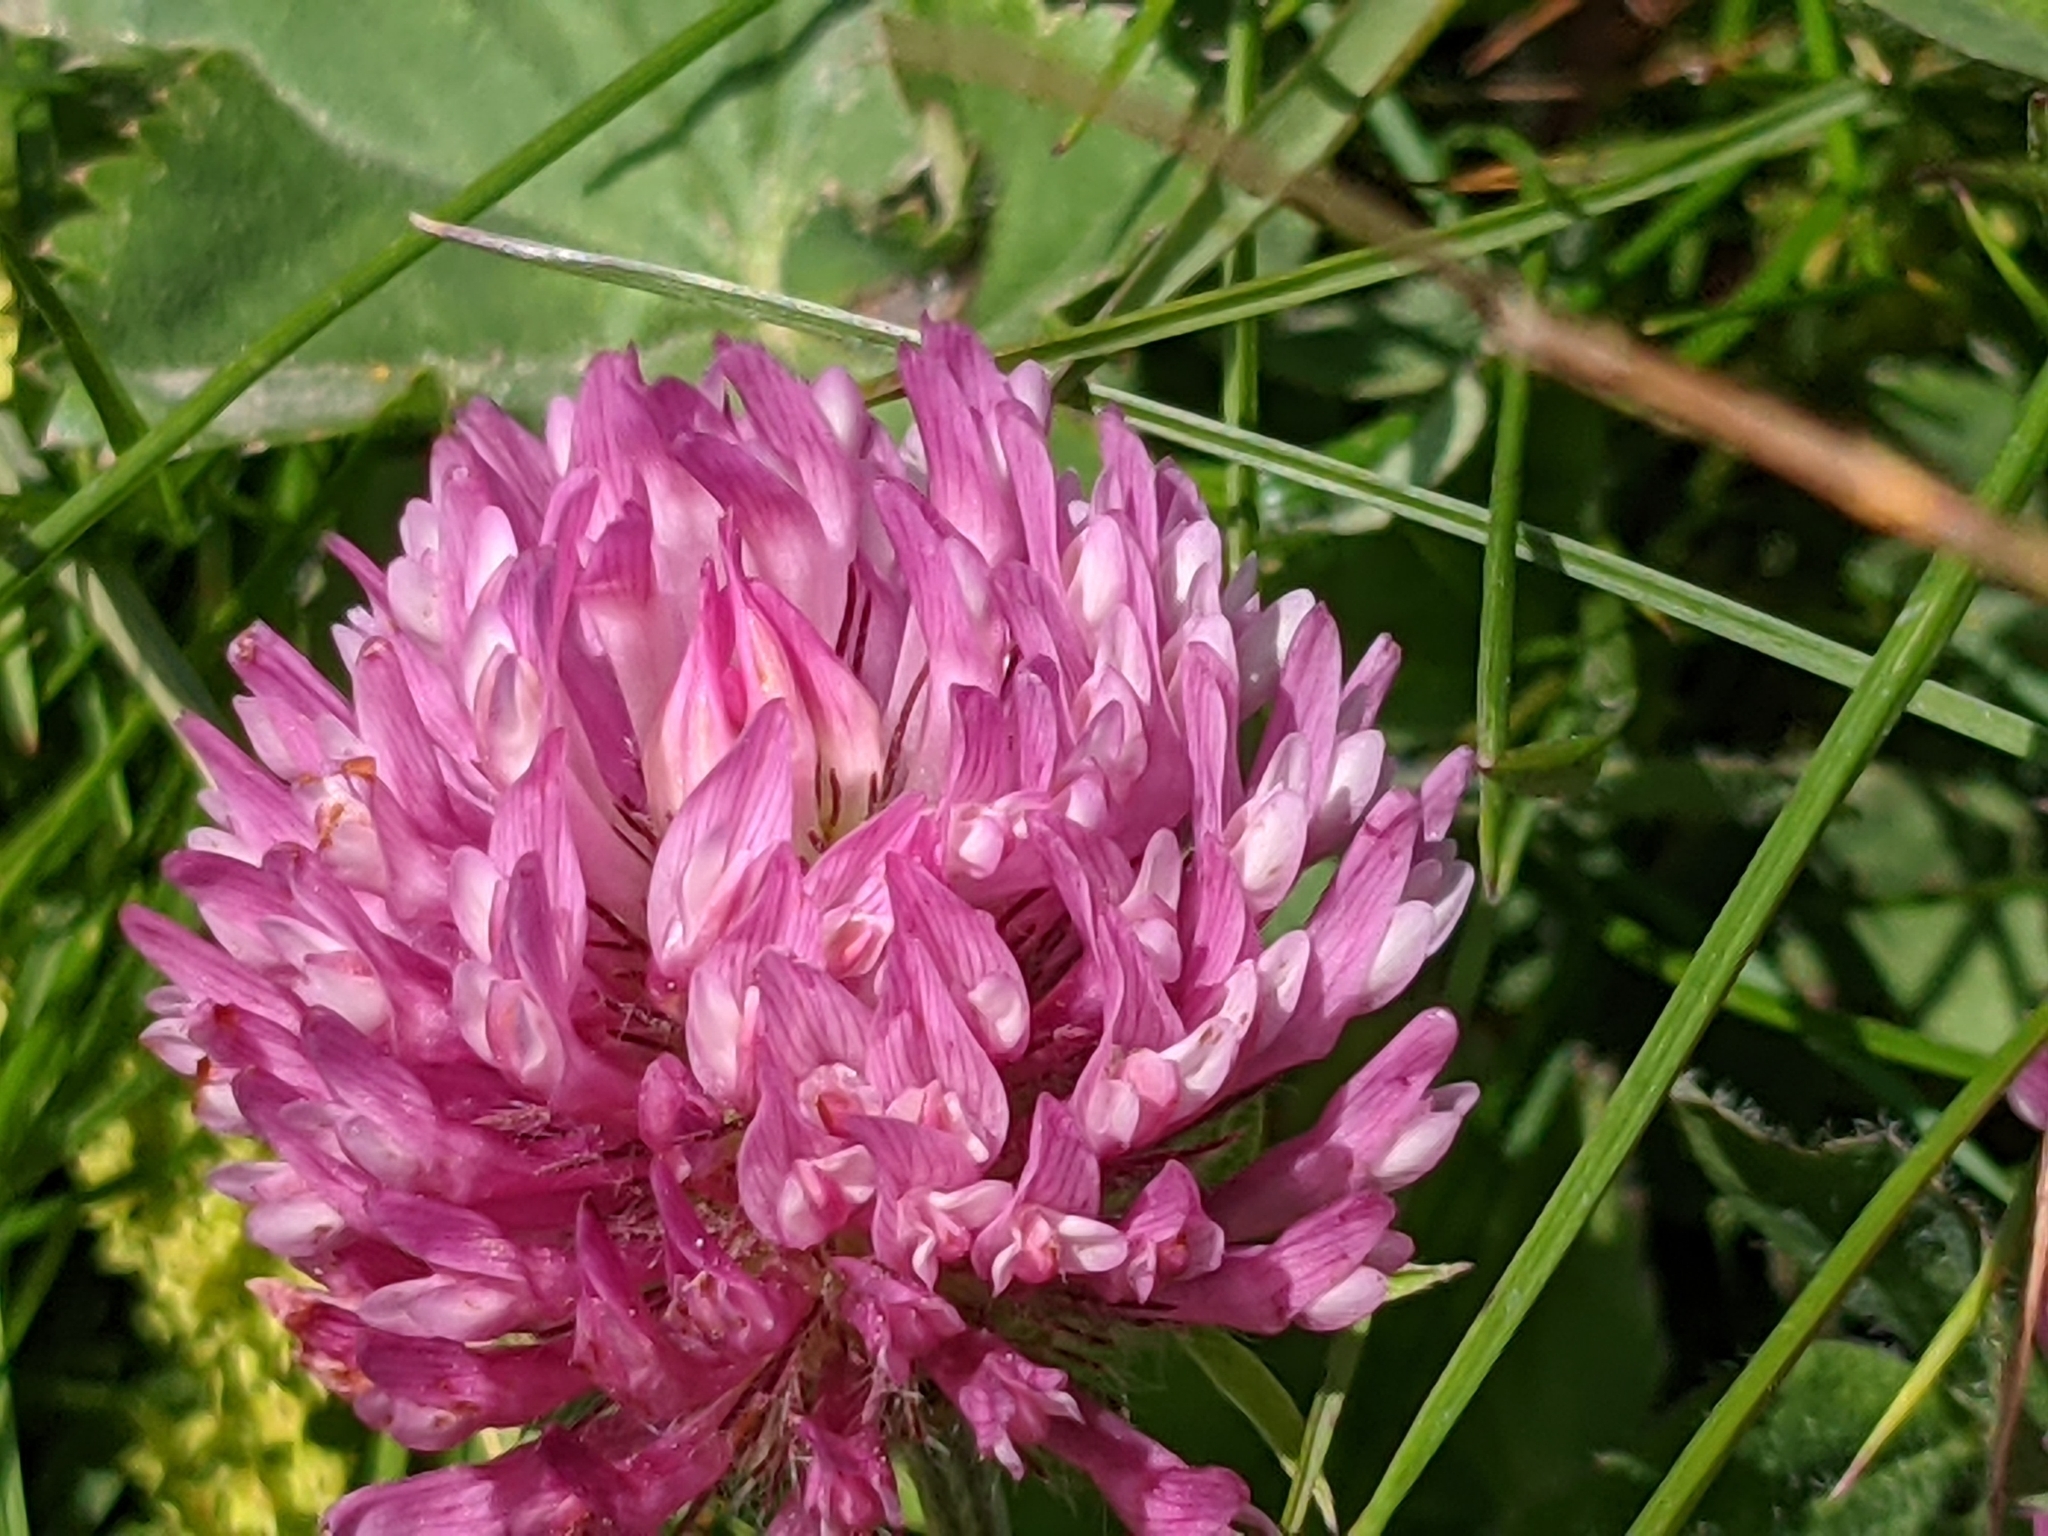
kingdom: Plantae
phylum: Tracheophyta
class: Magnoliopsida
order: Fabales
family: Fabaceae
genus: Trifolium
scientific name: Trifolium pratense
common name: Red clover
